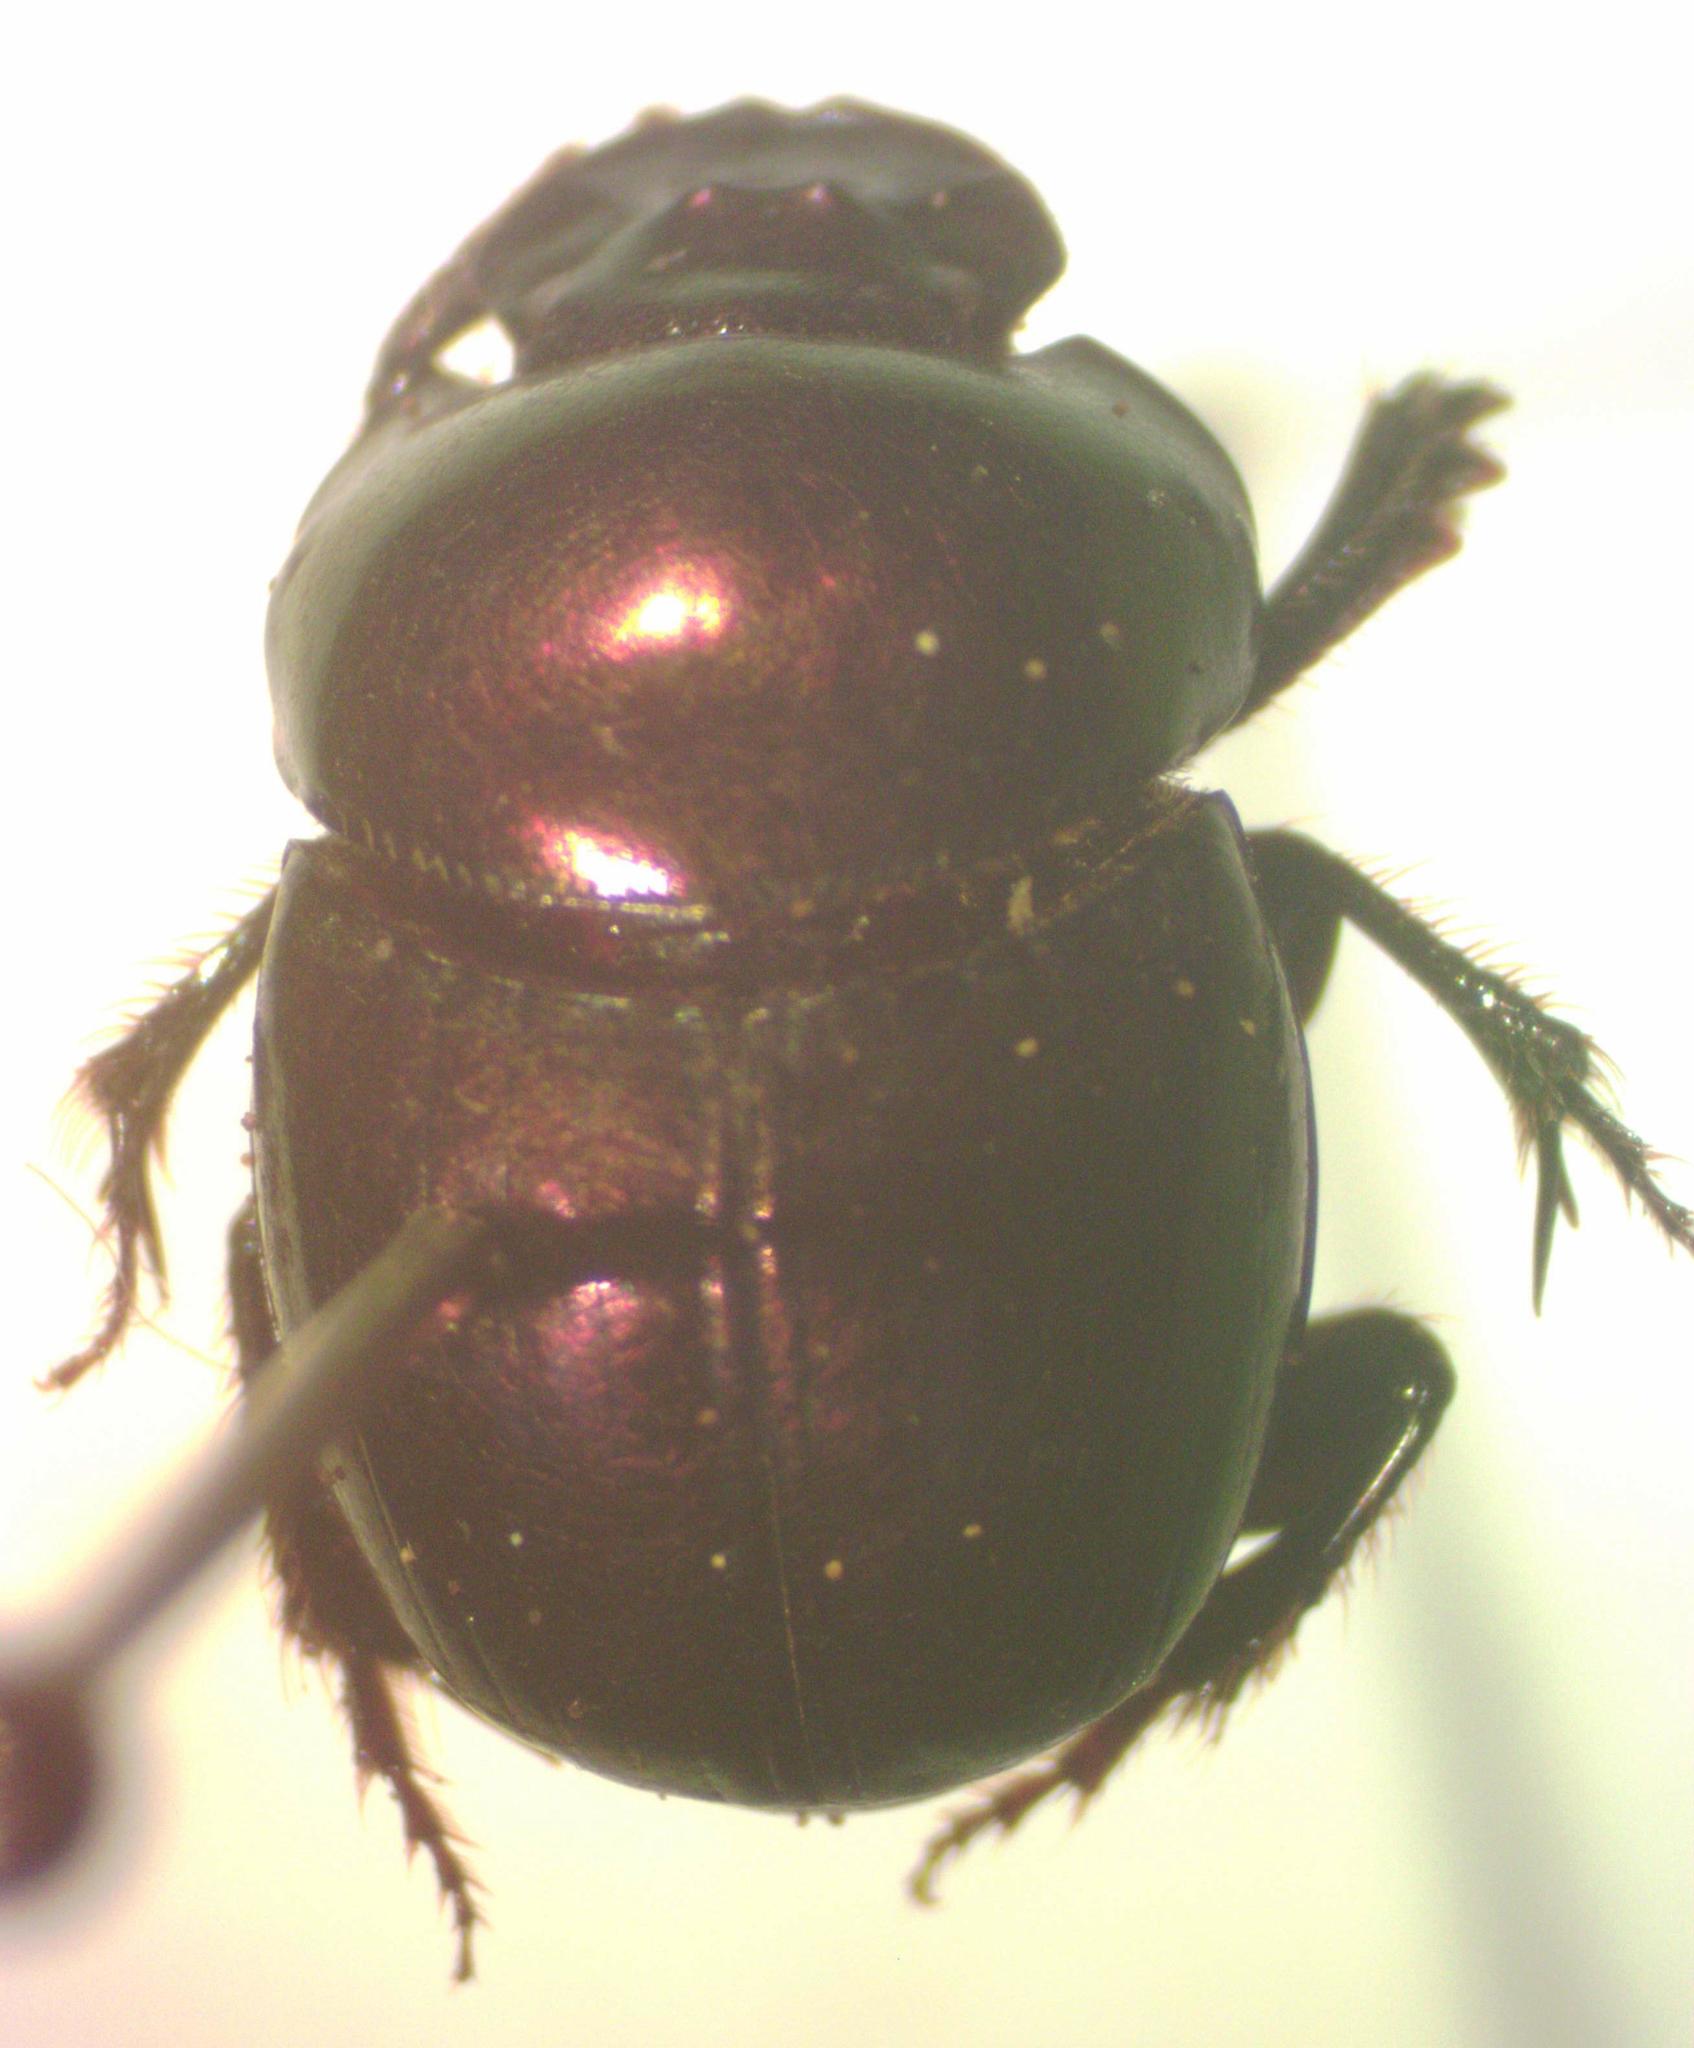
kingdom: Animalia
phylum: Arthropoda
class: Insecta
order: Coleoptera
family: Scarabaeidae
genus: Canthidium
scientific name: Canthidium haroldi
